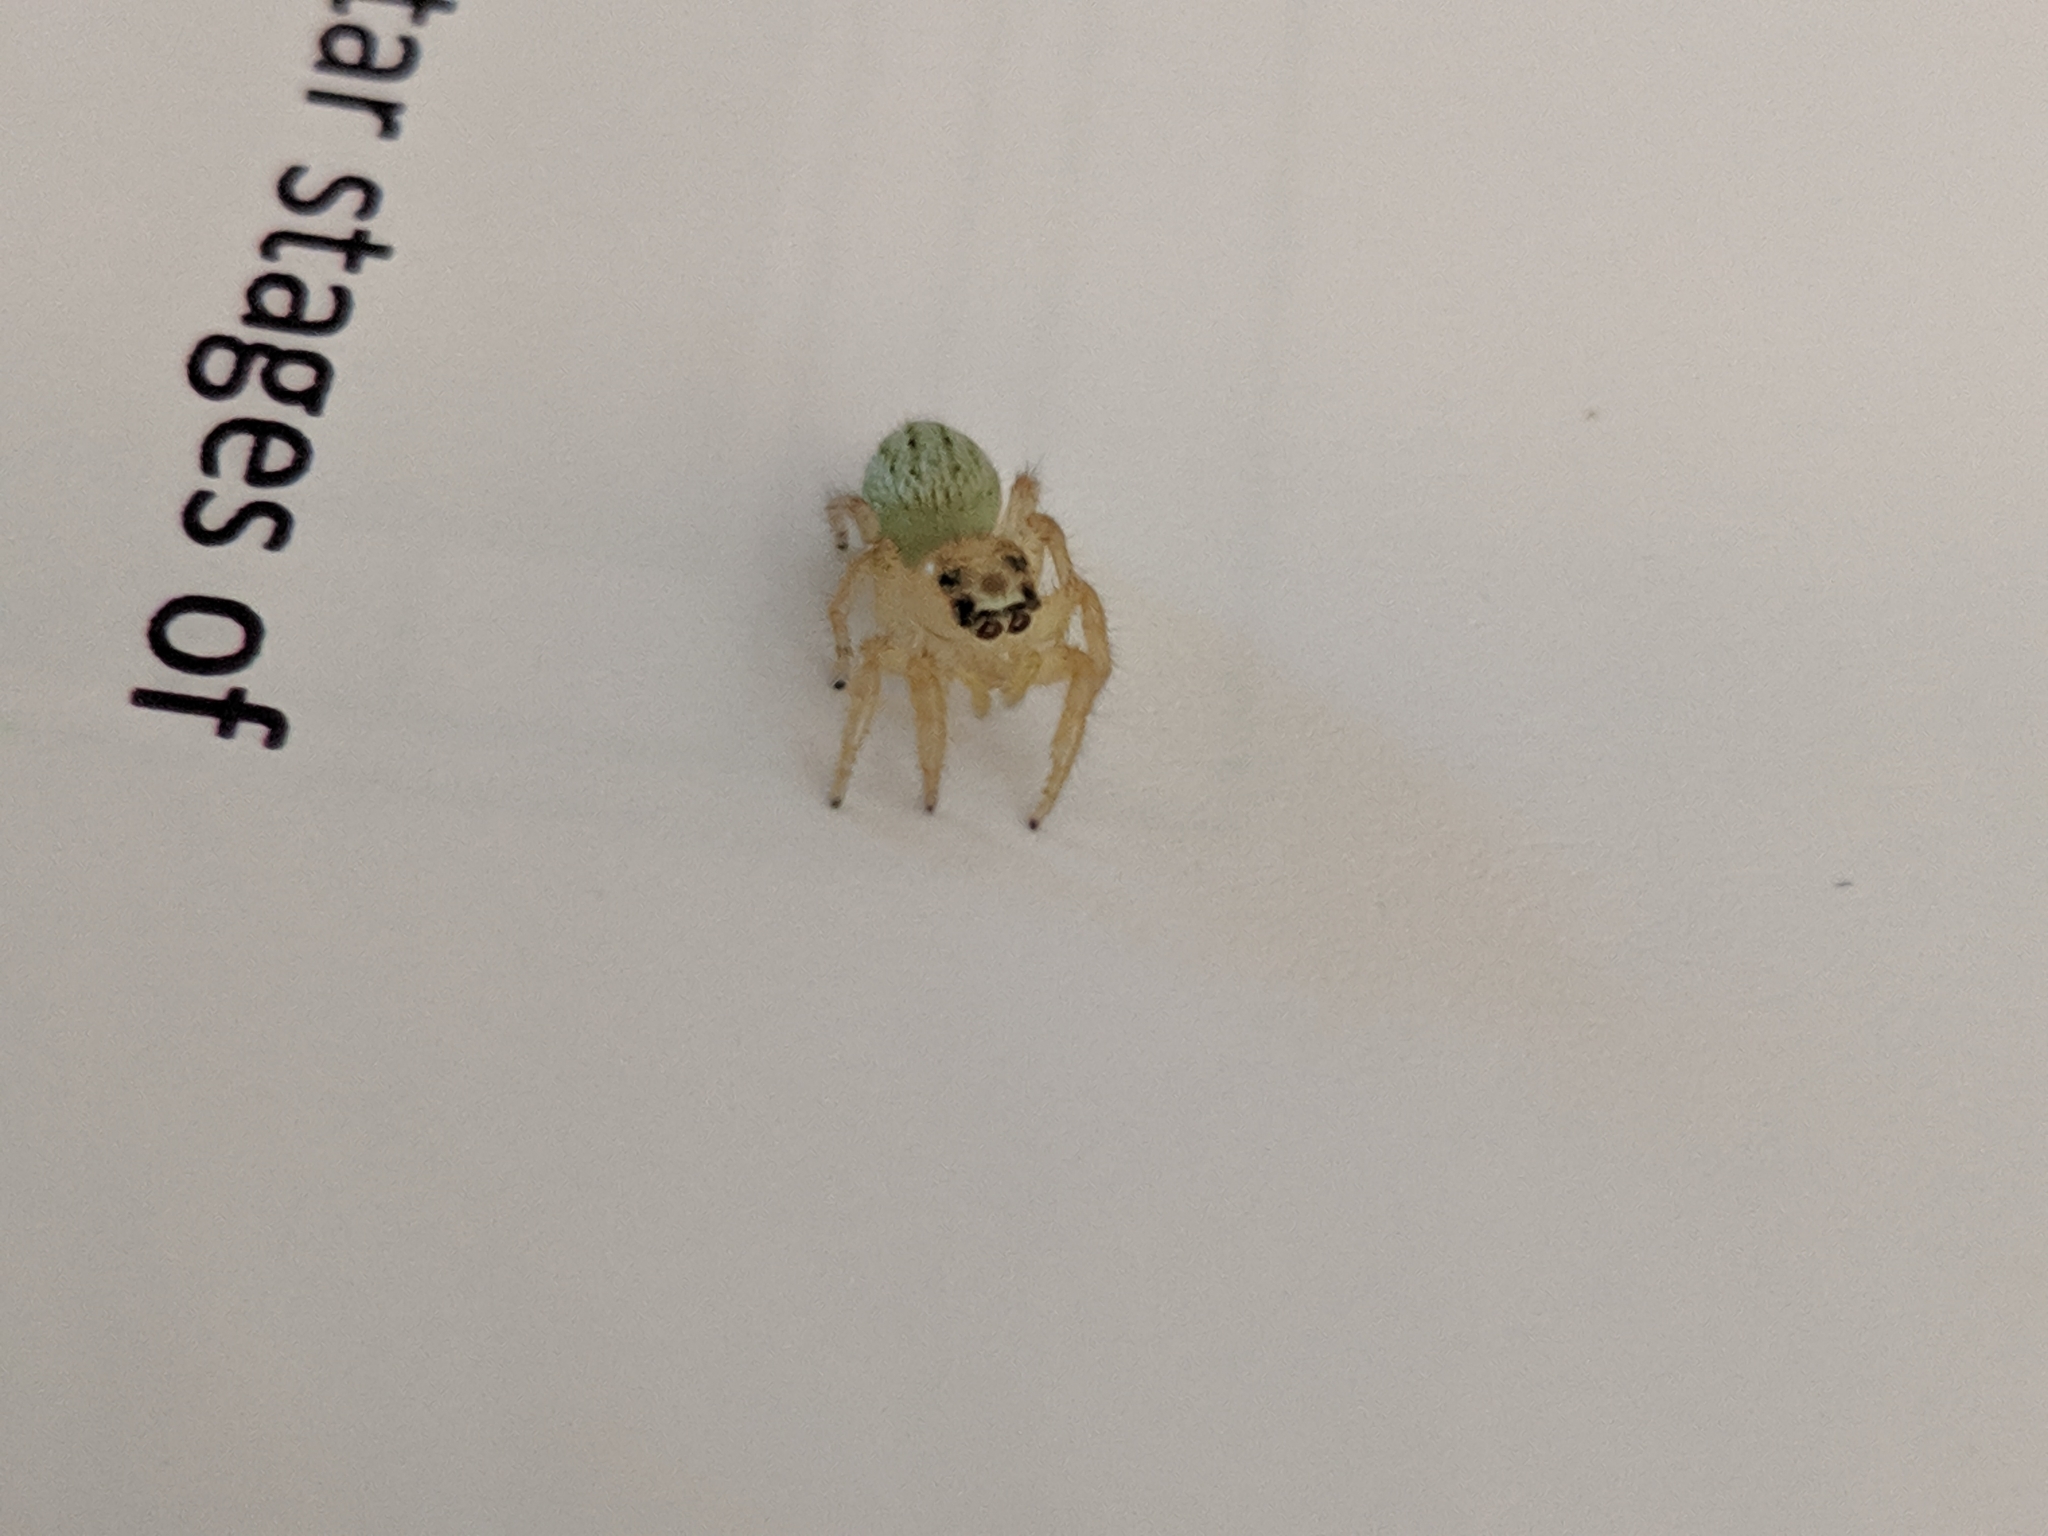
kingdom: Animalia
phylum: Arthropoda
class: Arachnida
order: Araneae
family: Salticidae
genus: Colonus
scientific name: Colonus puerperus
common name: Jumping spiders
